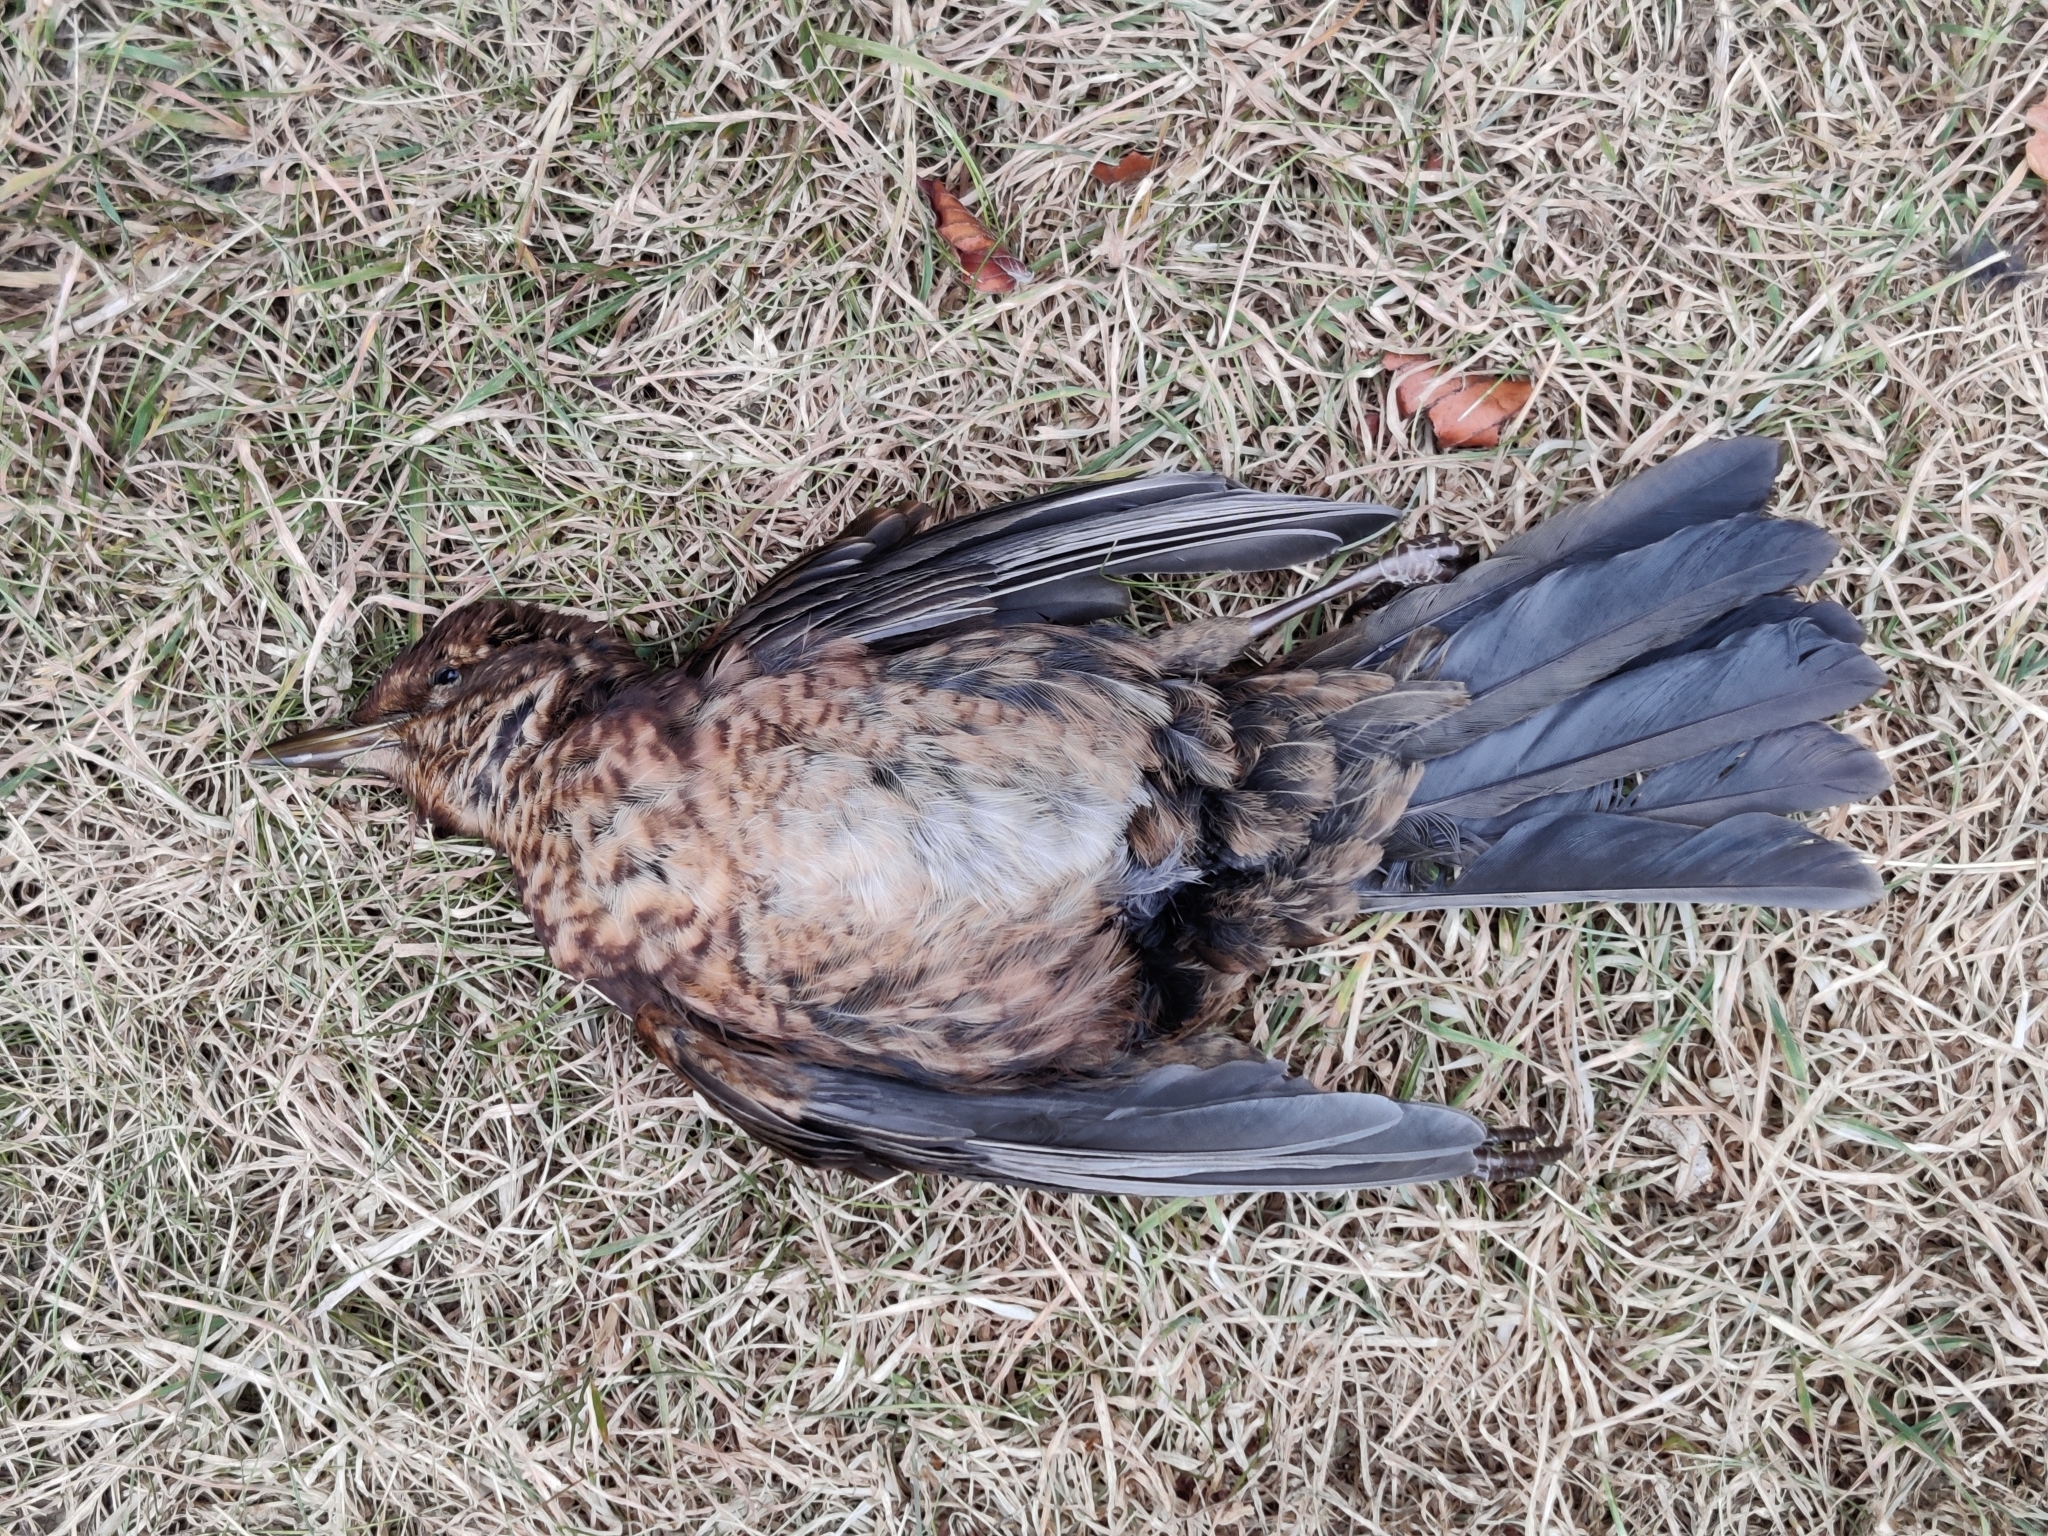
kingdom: Animalia
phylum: Chordata
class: Aves
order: Passeriformes
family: Turdidae
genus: Turdus
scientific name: Turdus merula
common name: Common blackbird
